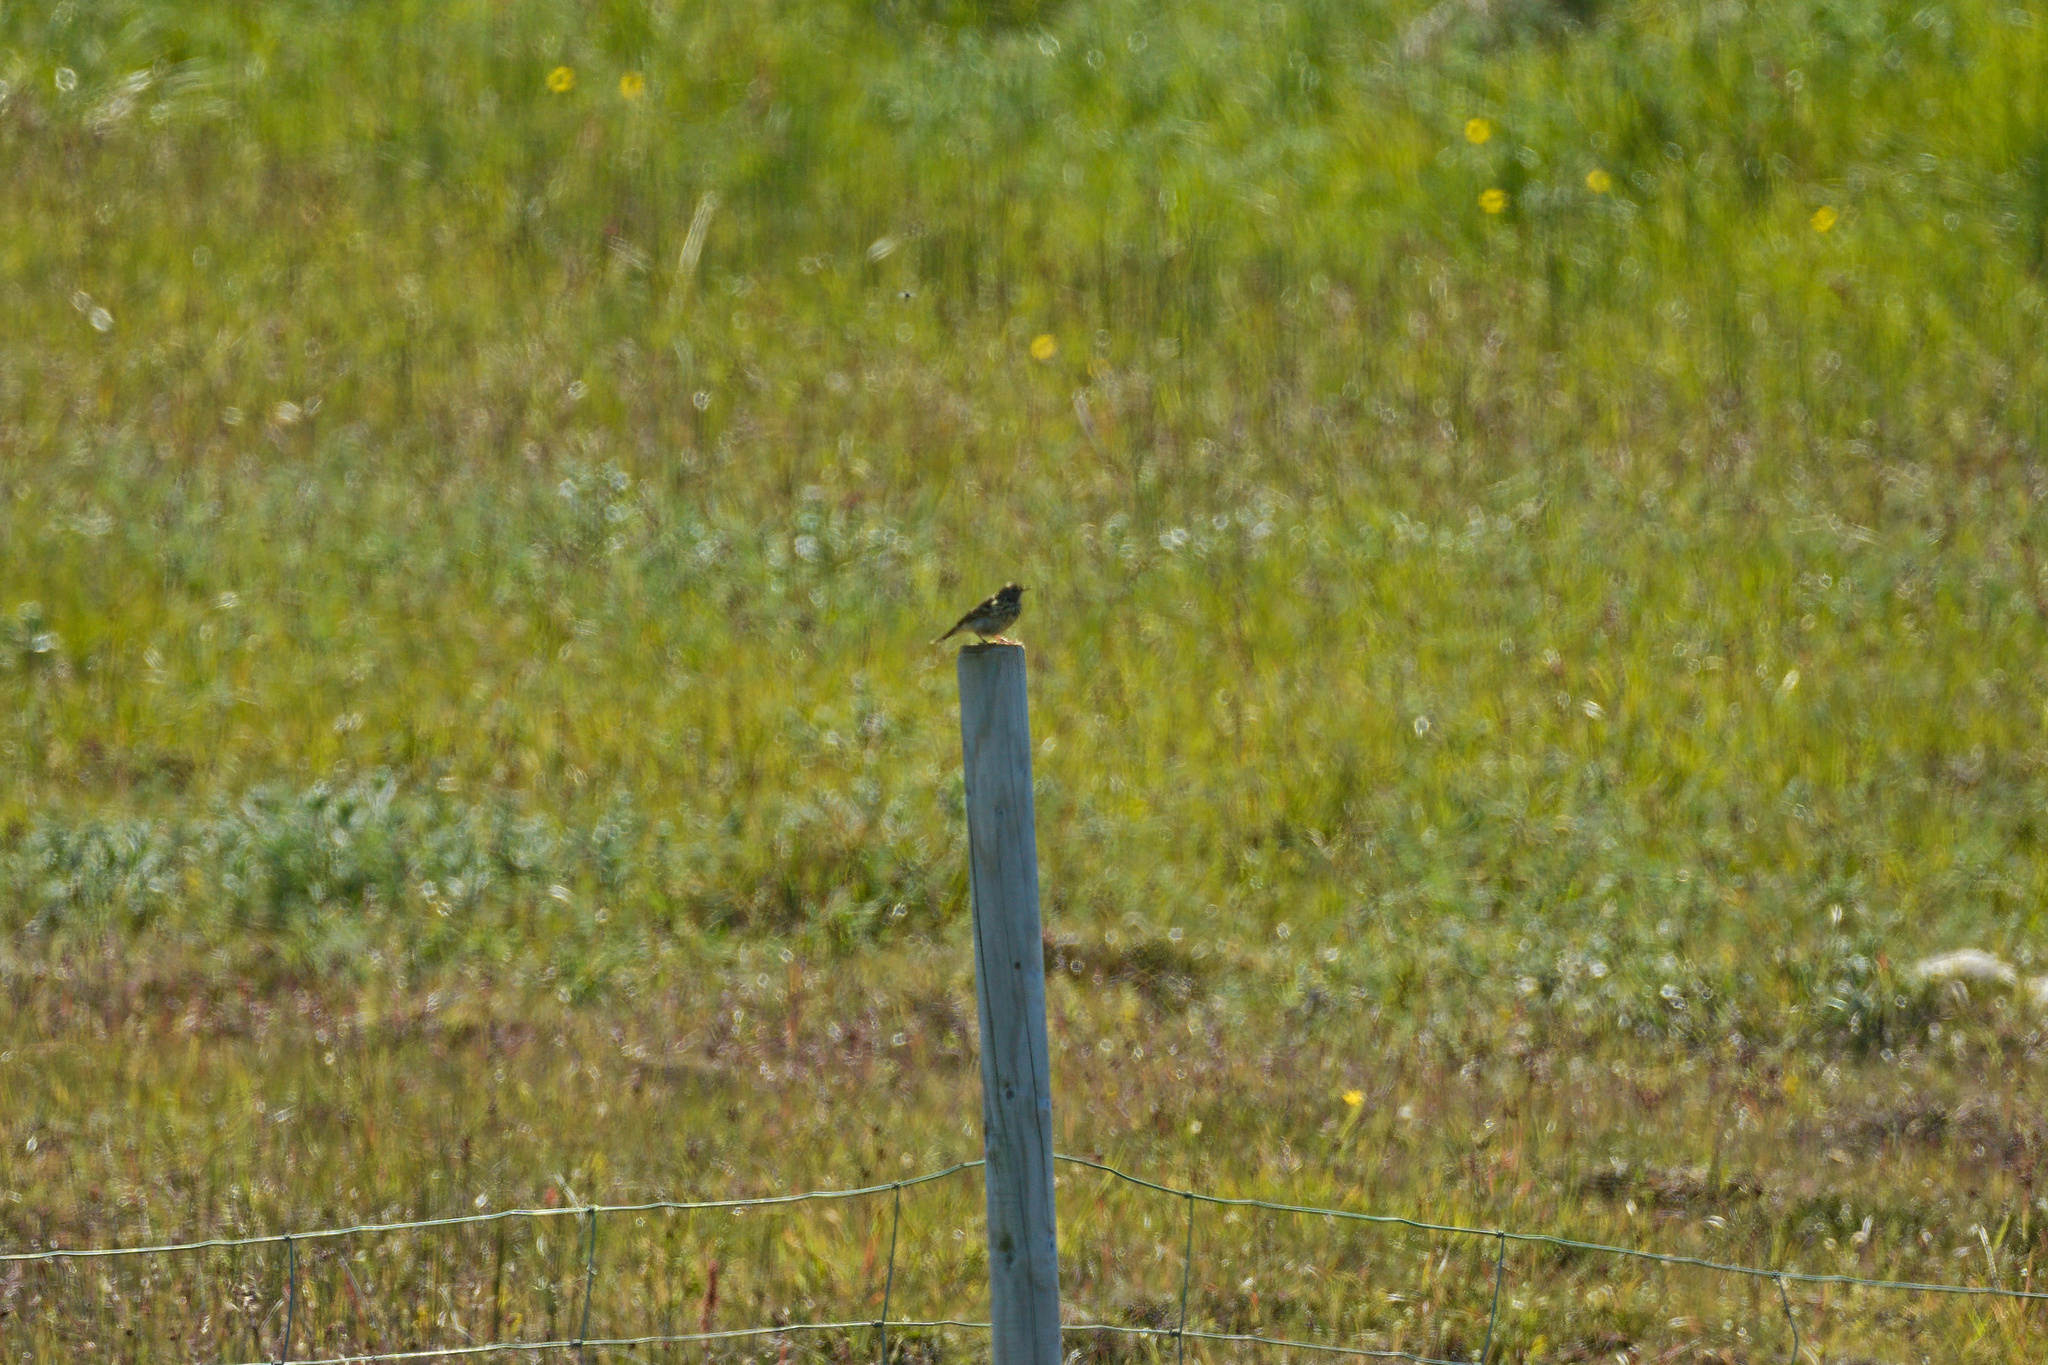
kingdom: Animalia
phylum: Chordata
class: Aves
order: Passeriformes
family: Motacillidae
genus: Anthus
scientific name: Anthus pratensis
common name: Meadow pipit
